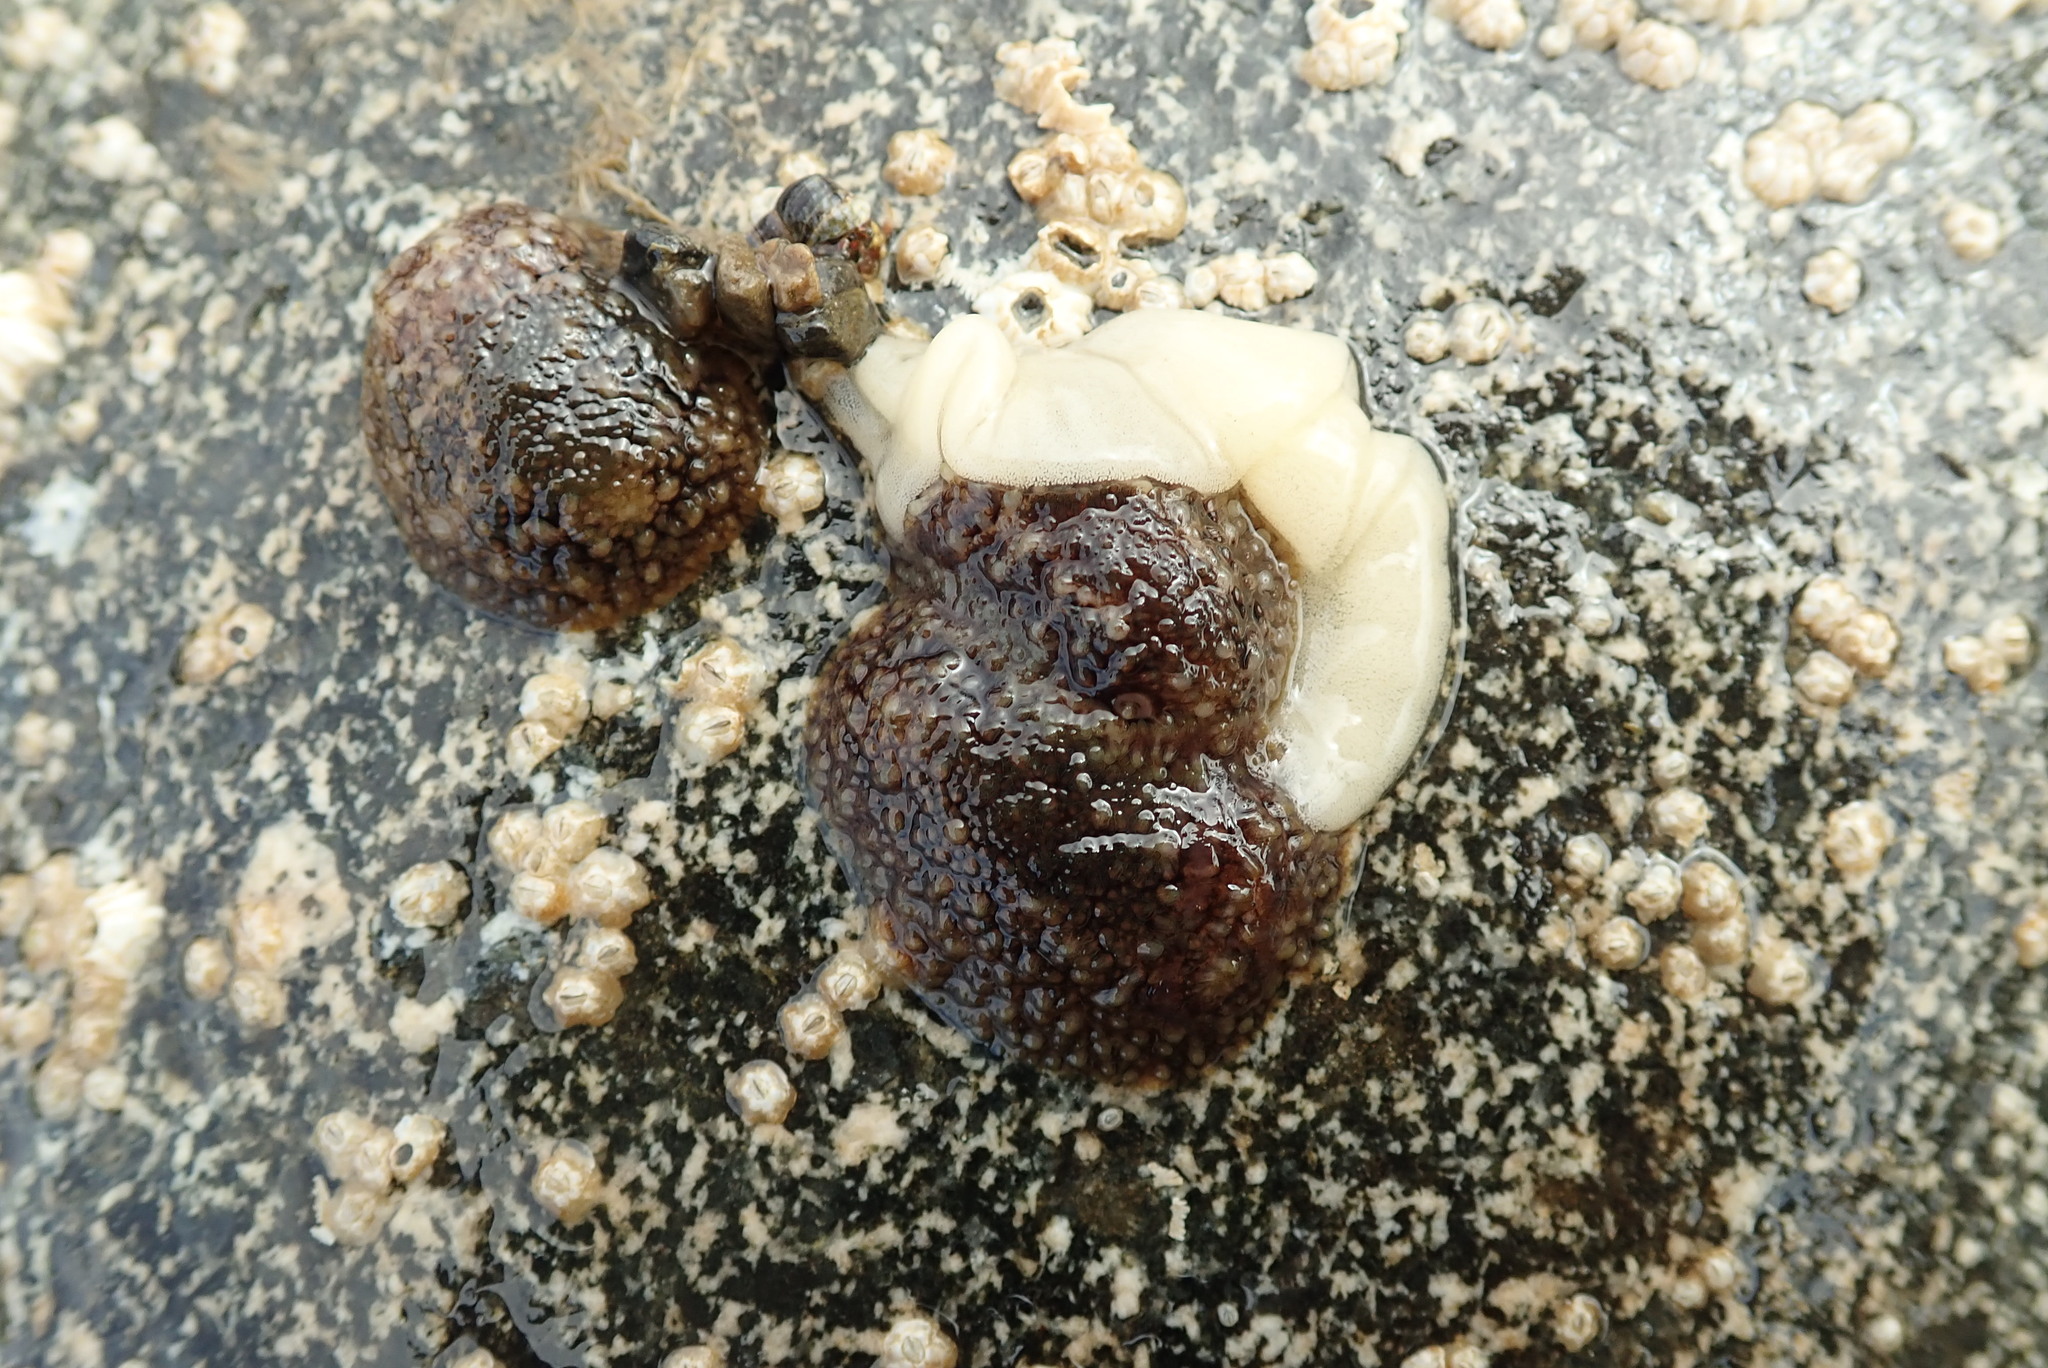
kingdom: Animalia
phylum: Mollusca
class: Gastropoda
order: Nudibranchia
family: Onchidorididae
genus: Onchidoris
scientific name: Onchidoris bilamellata
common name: Barnacle-eating onchidoris
